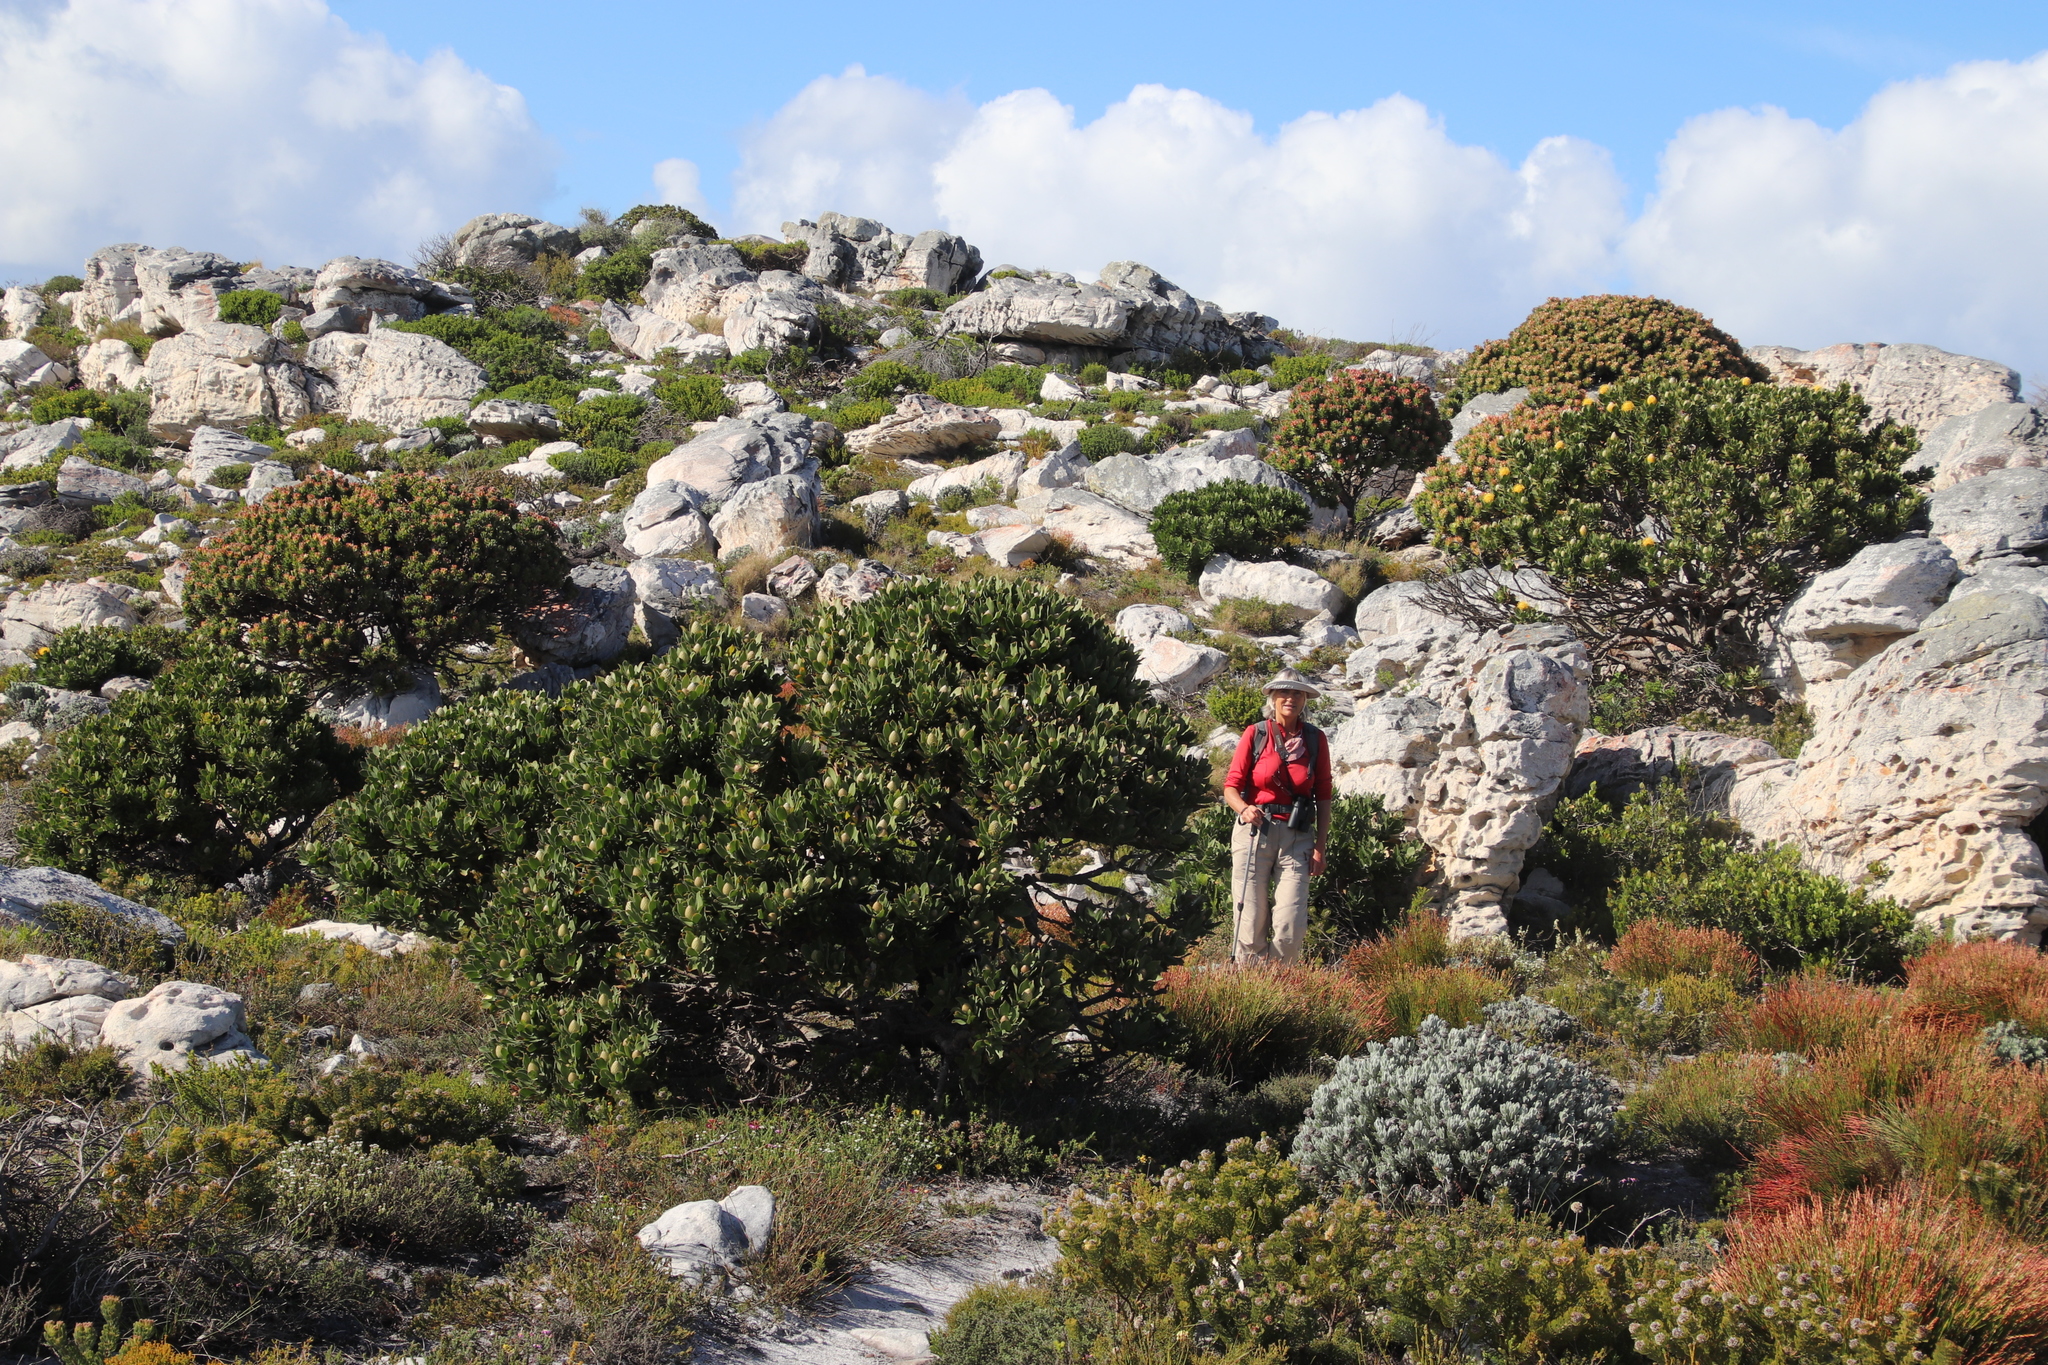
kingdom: Plantae
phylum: Tracheophyta
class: Magnoliopsida
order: Proteales
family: Proteaceae
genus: Mimetes
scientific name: Mimetes fimbriifolius
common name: Fringed bottlebrush
